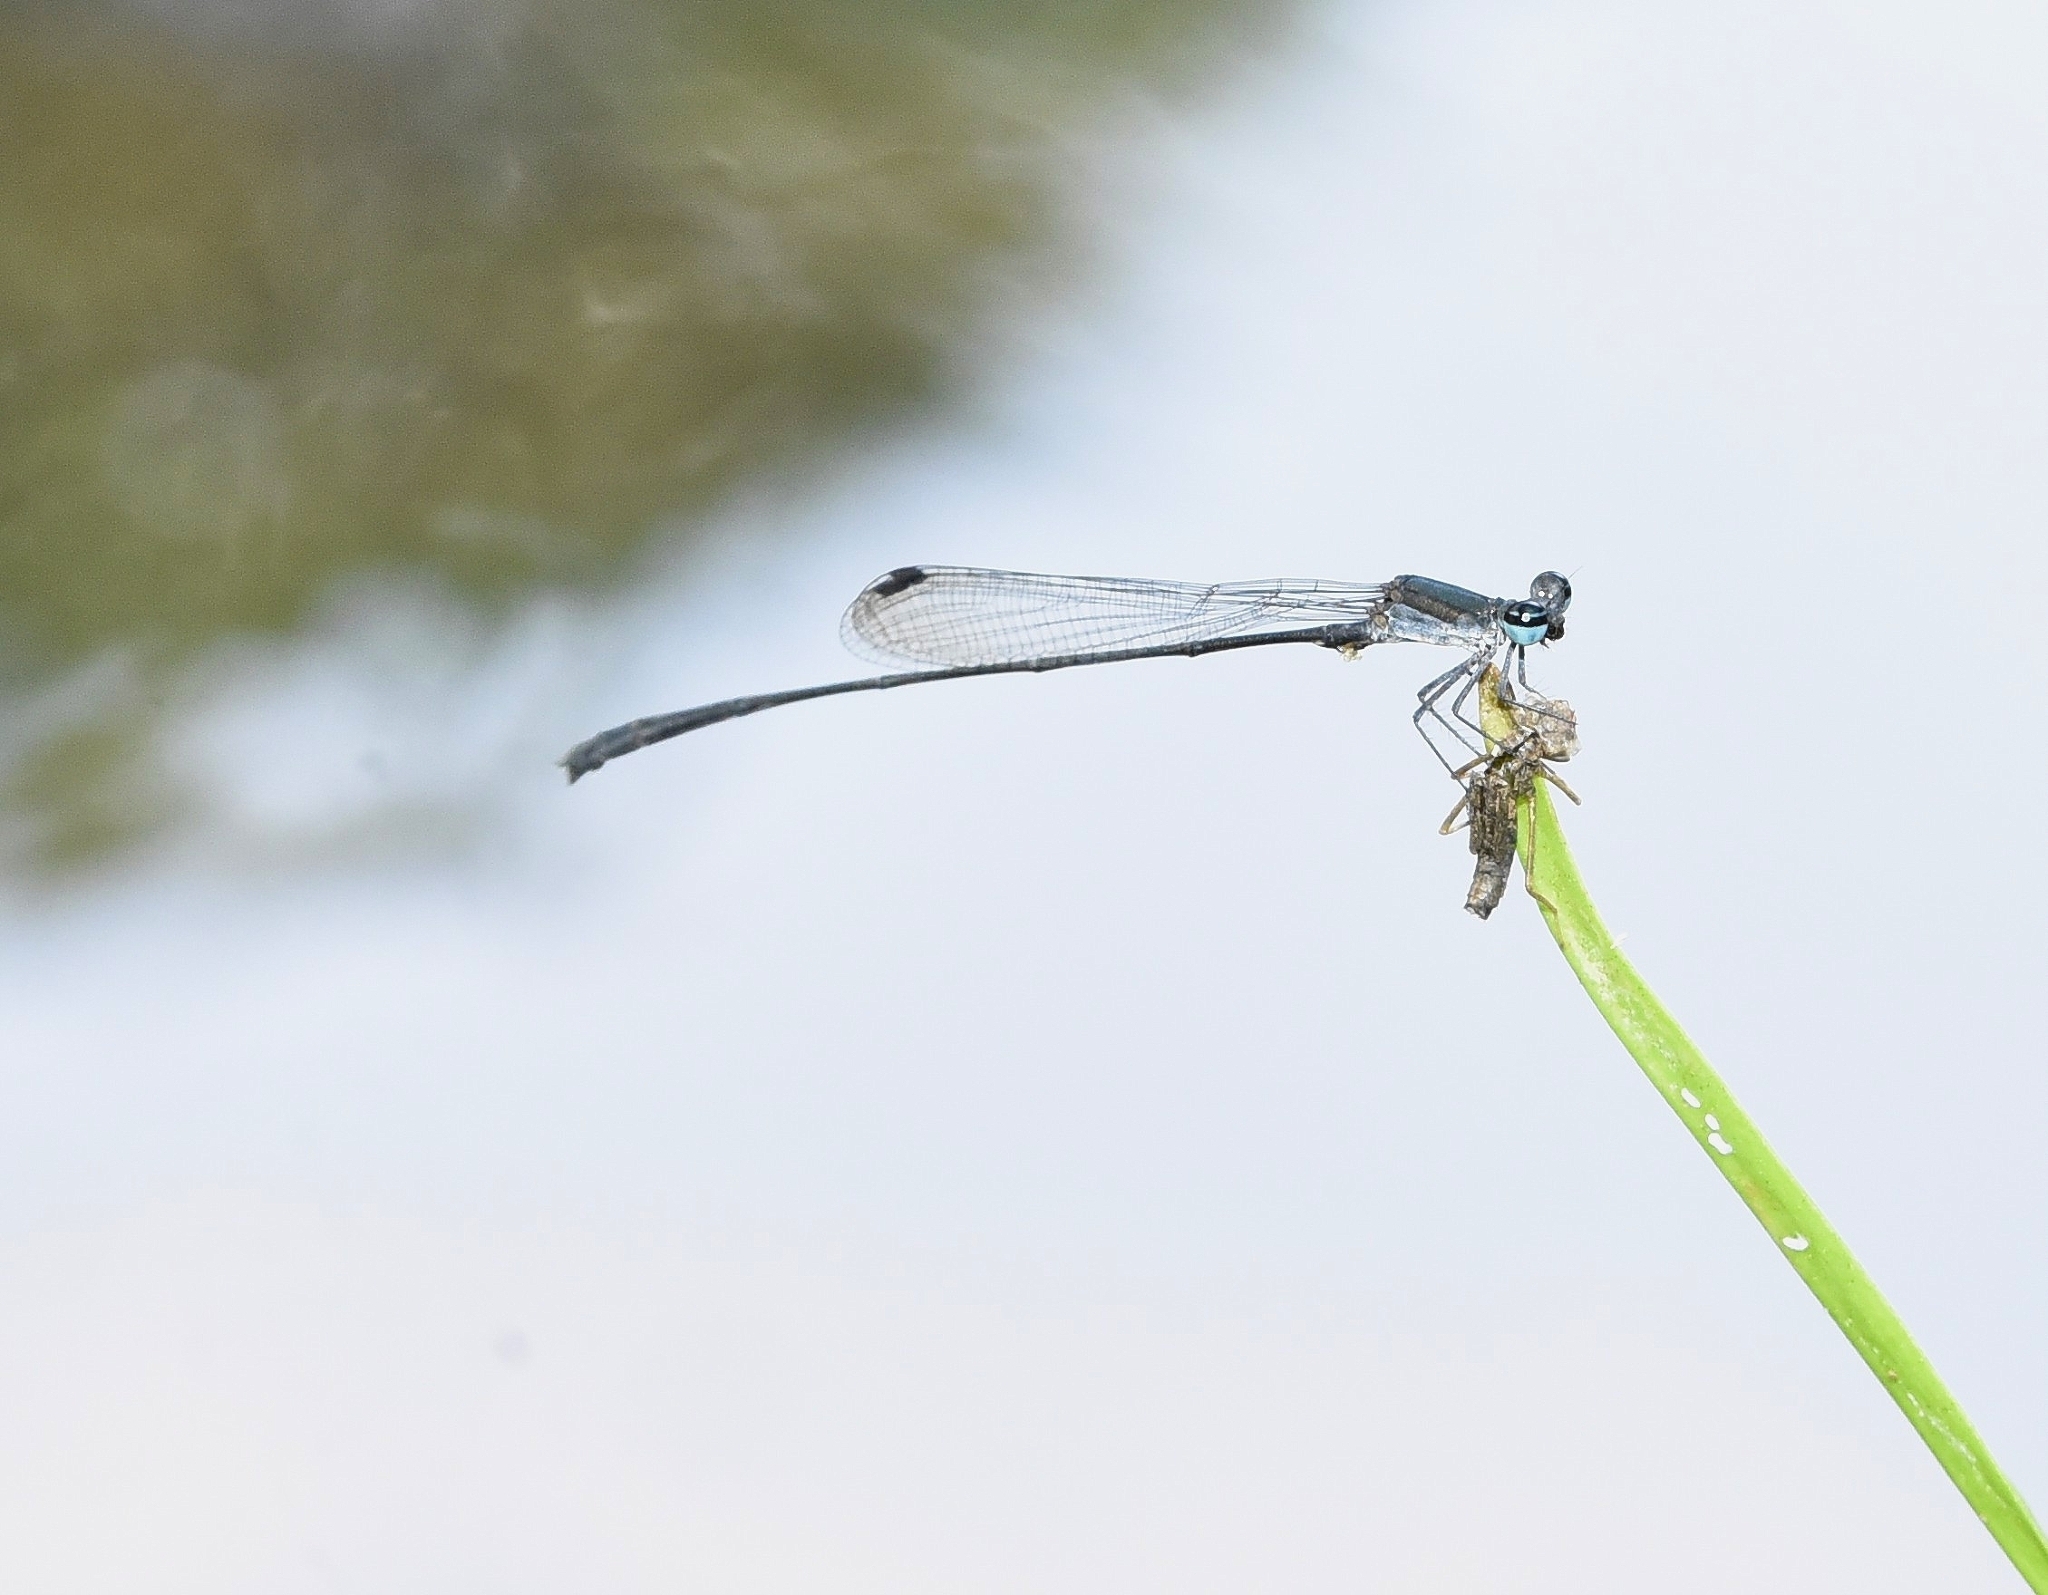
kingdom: Animalia
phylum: Arthropoda
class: Insecta
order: Odonata
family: Platycnemididae
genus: Elattoneura
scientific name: Elattoneura tetrica
